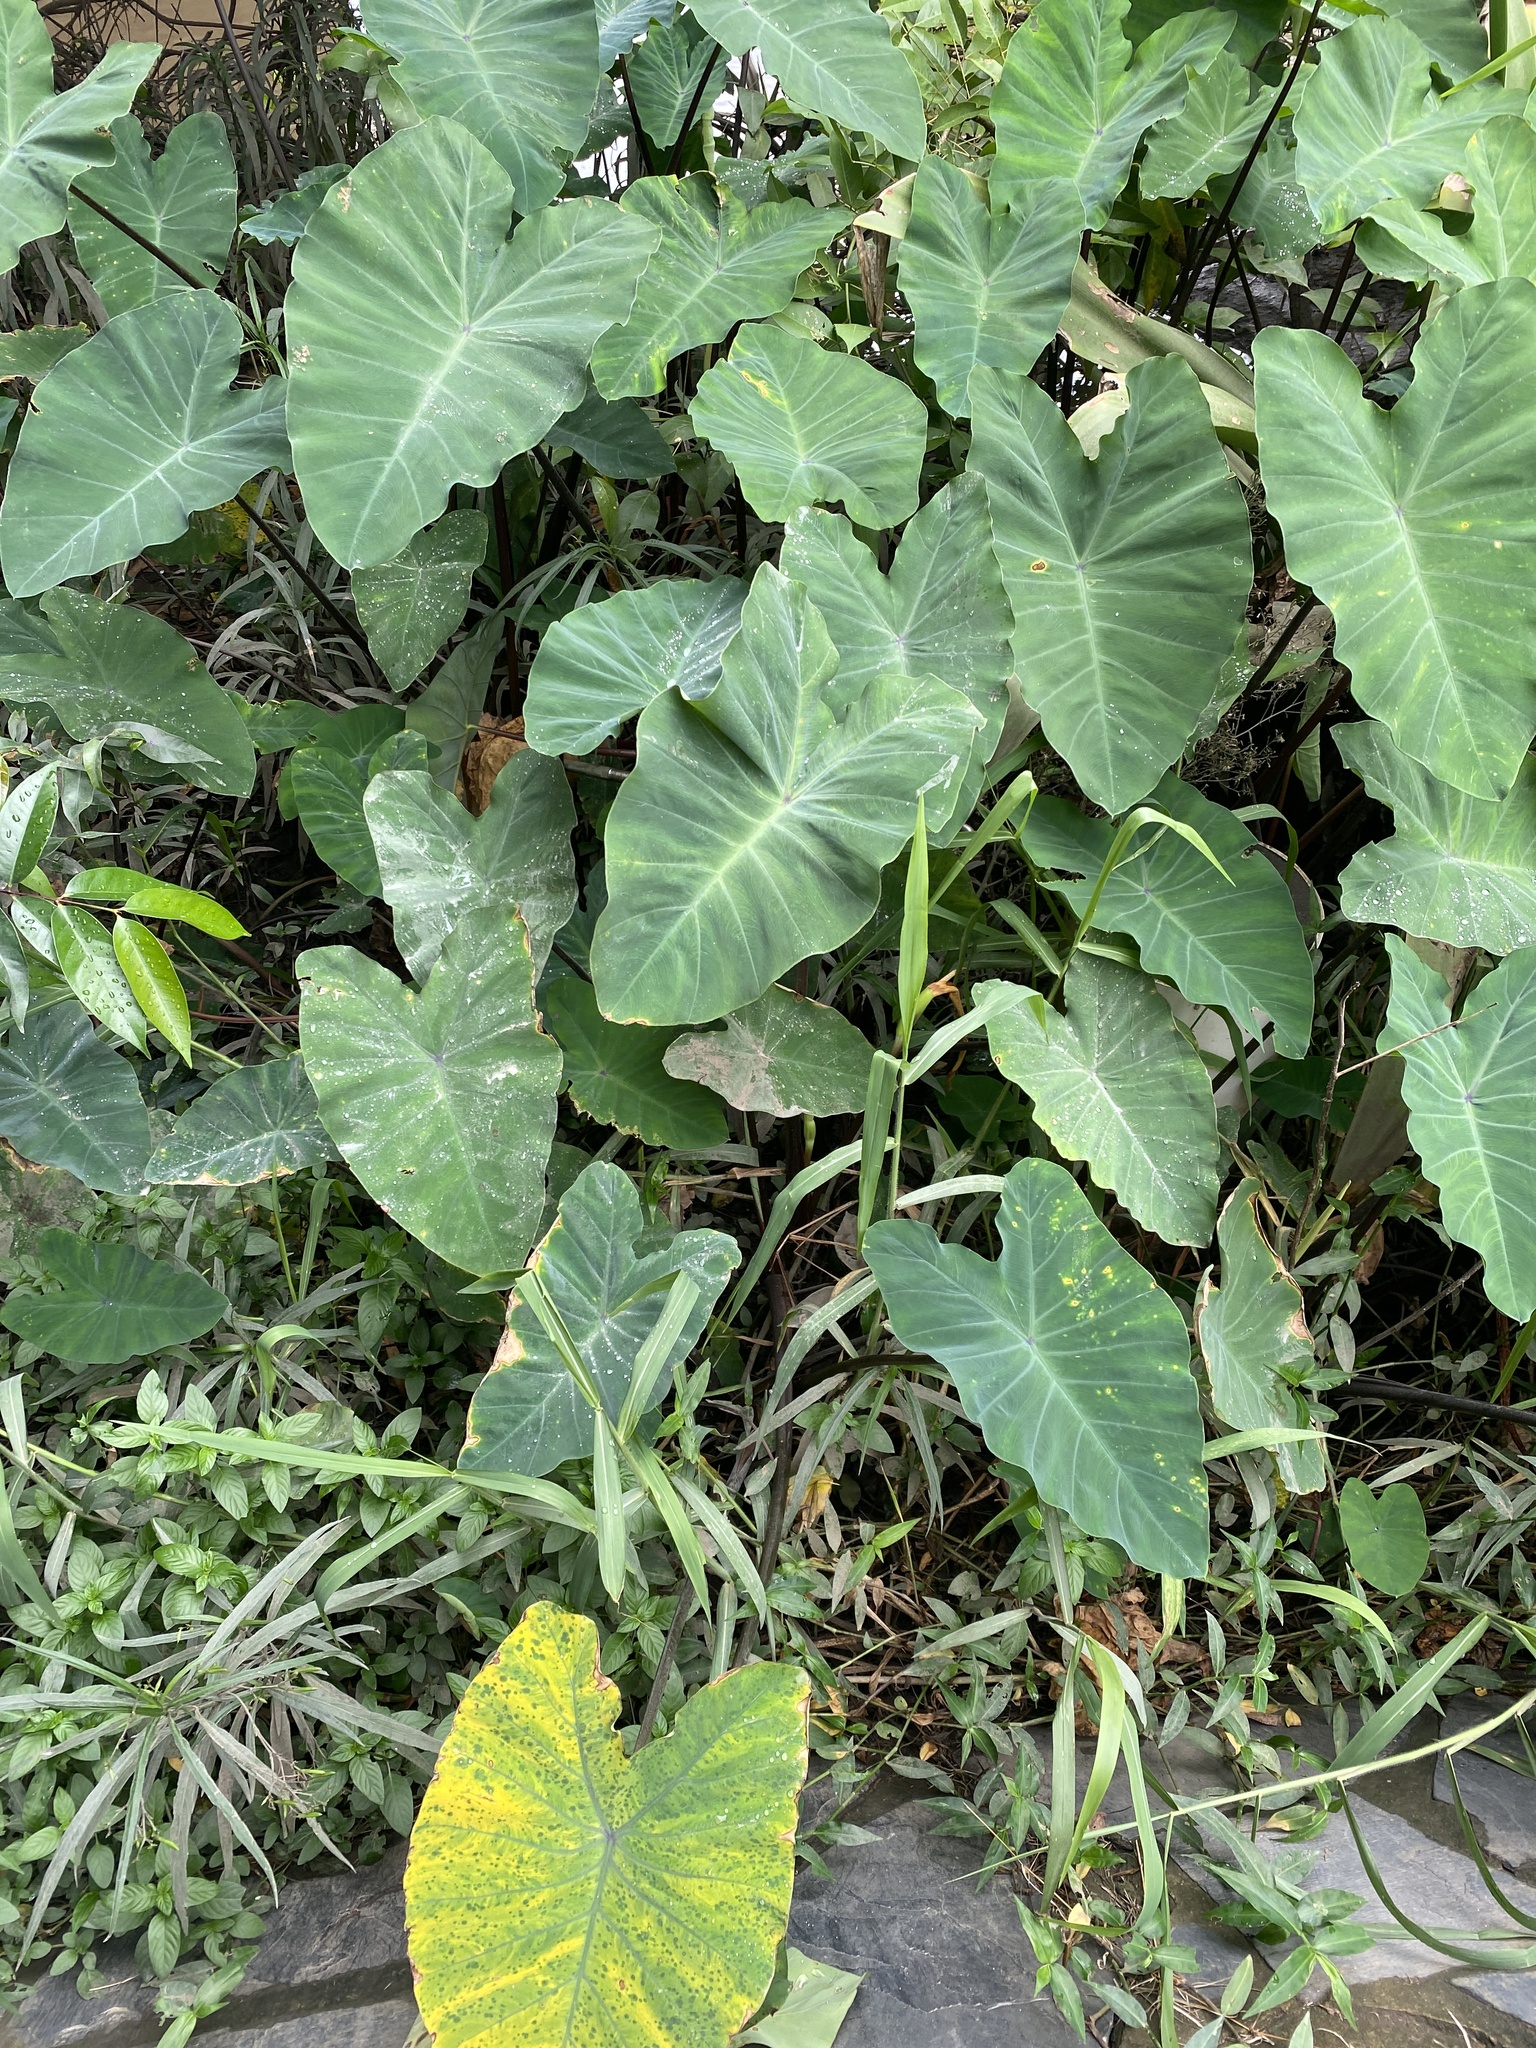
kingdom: Plantae
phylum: Tracheophyta
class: Liliopsida
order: Alismatales
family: Araceae
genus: Colocasia
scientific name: Colocasia esculenta
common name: Taro
